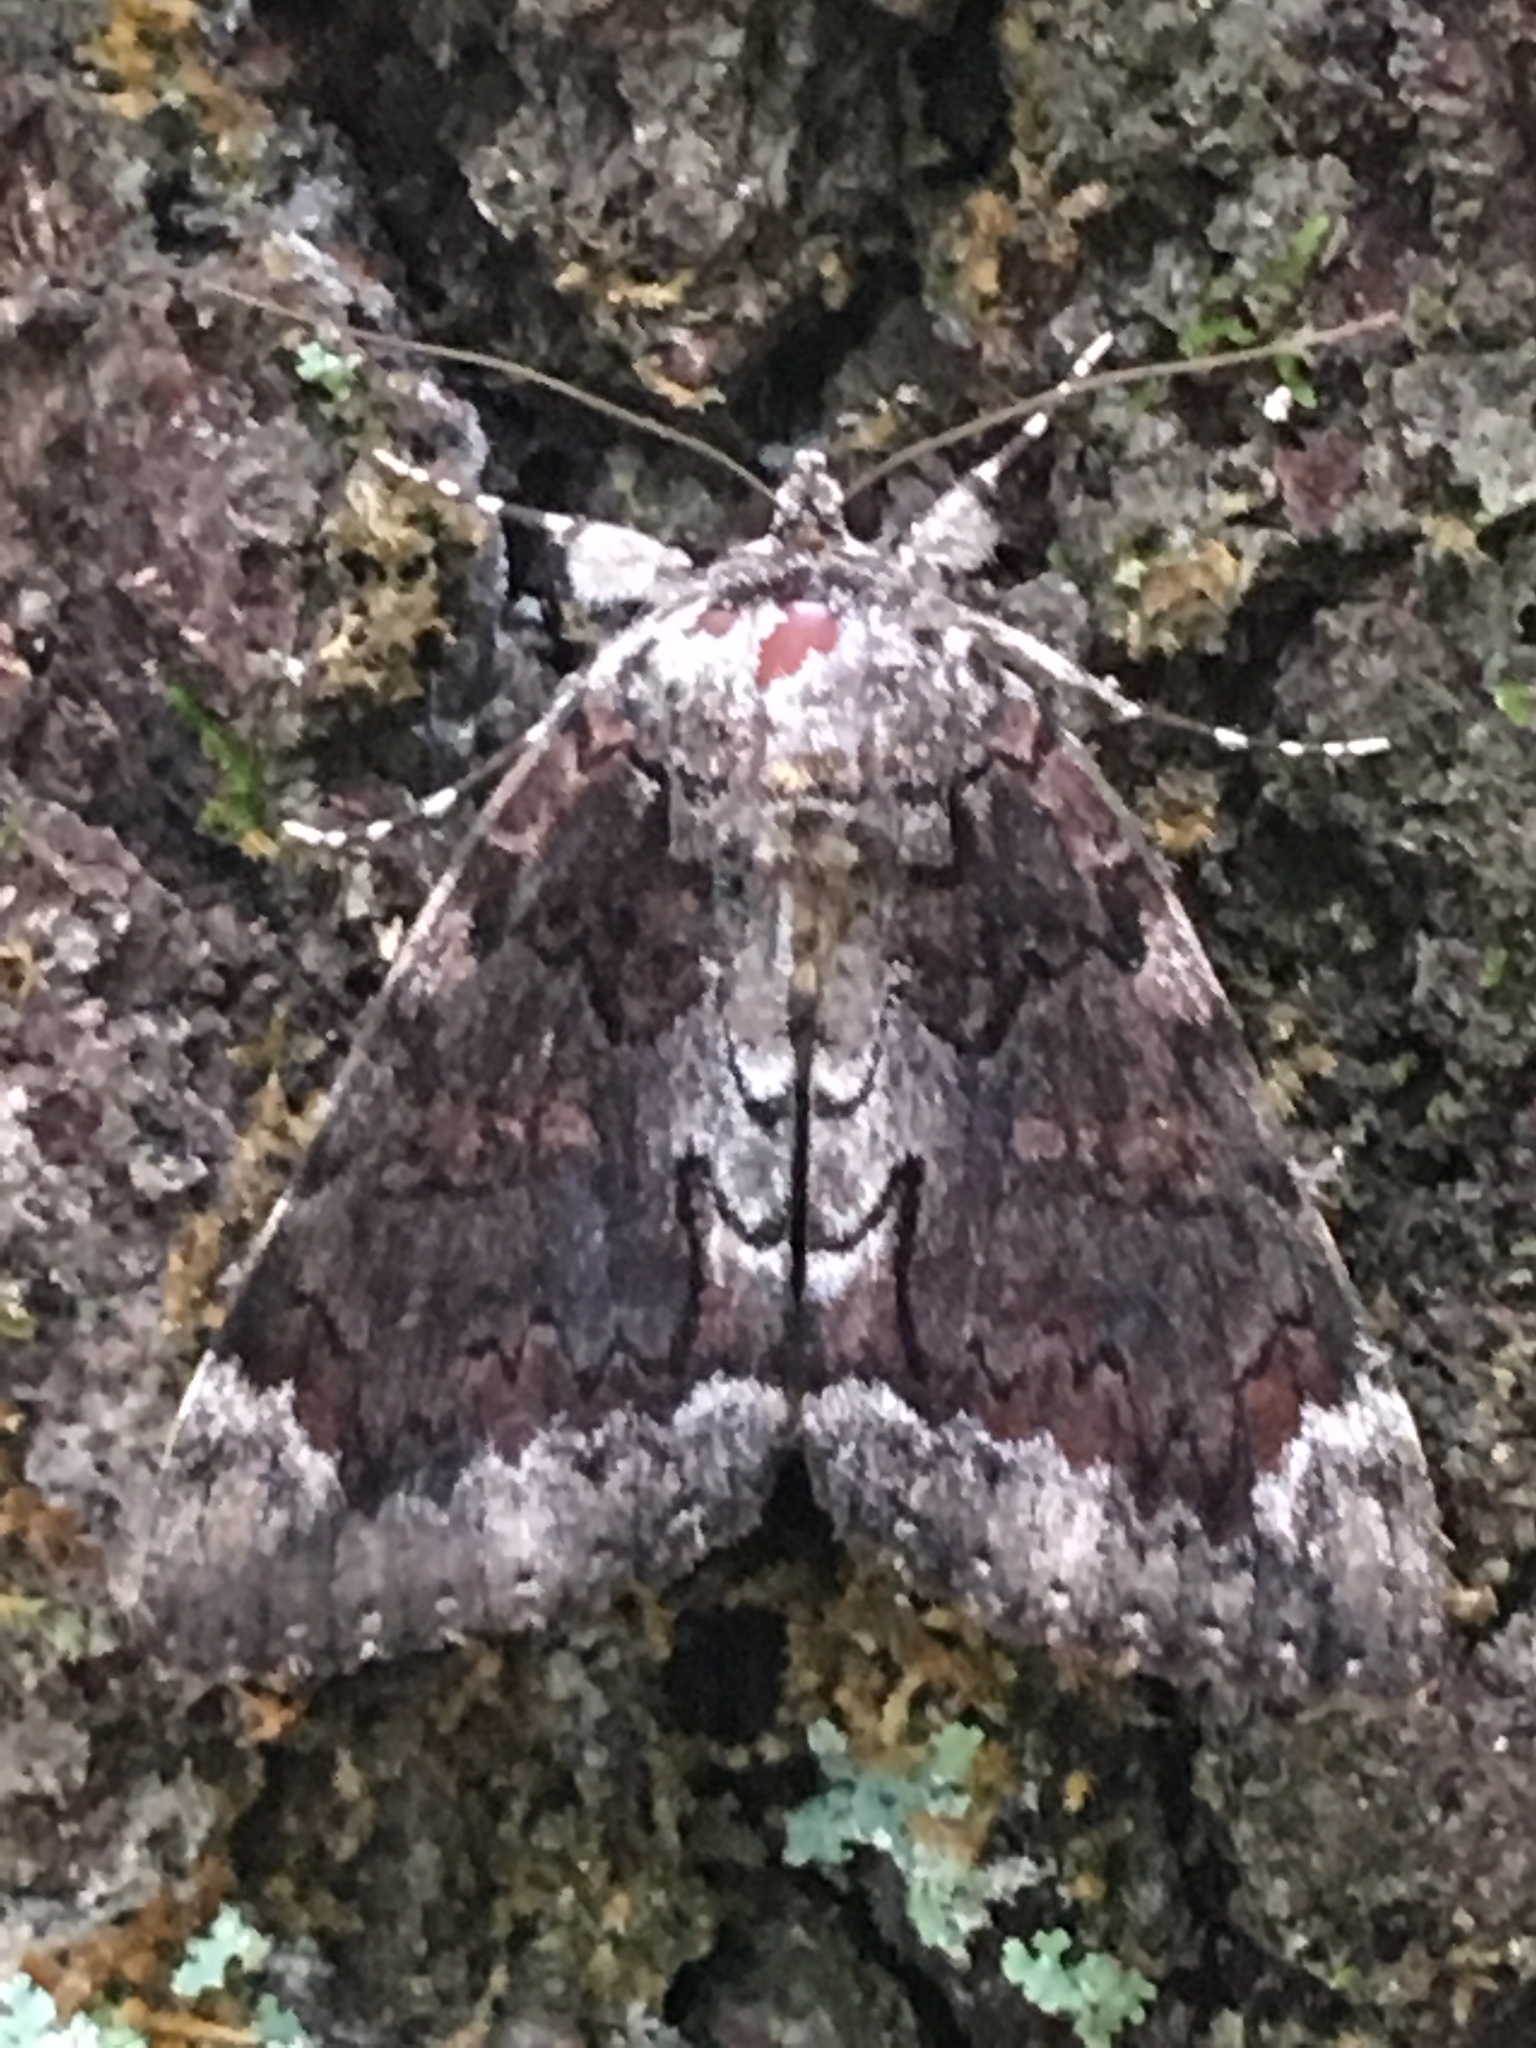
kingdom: Animalia
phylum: Arthropoda
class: Insecta
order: Lepidoptera
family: Erebidae
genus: Catocala
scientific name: Catocala lacrymosa
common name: Tearful underwing
